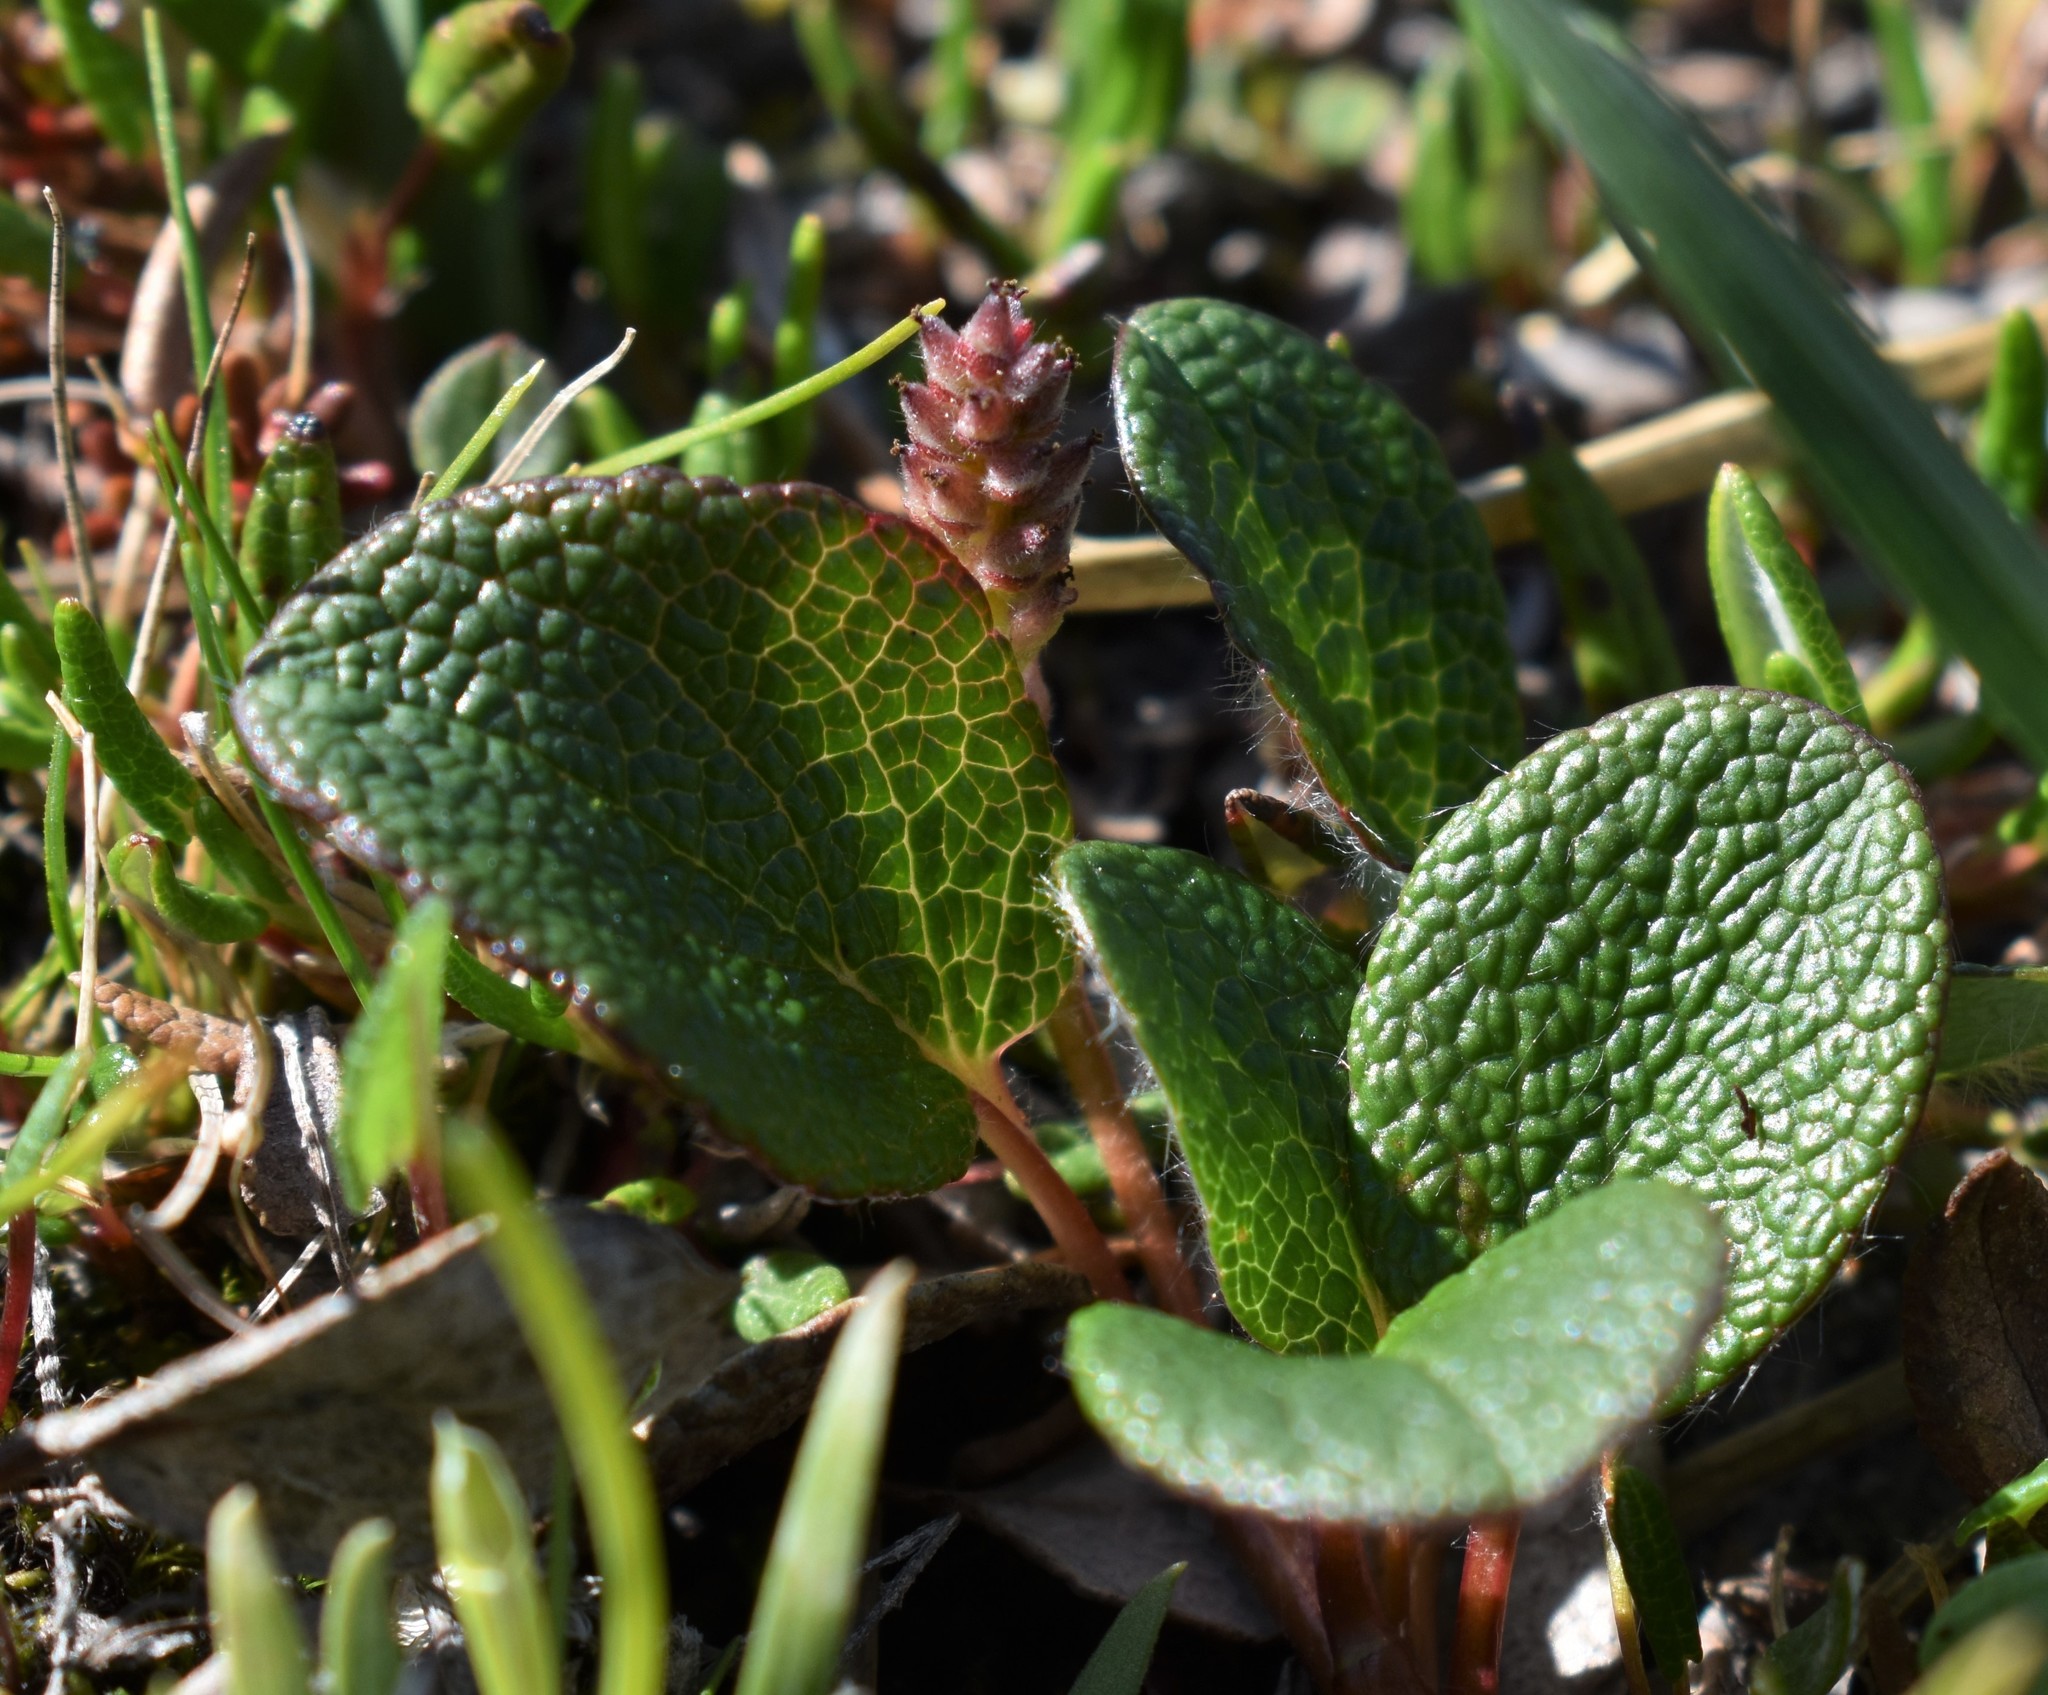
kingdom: Plantae
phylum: Tracheophyta
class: Magnoliopsida
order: Malpighiales
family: Salicaceae
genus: Salix
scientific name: Salix reticulata
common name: Net-leaved willow
